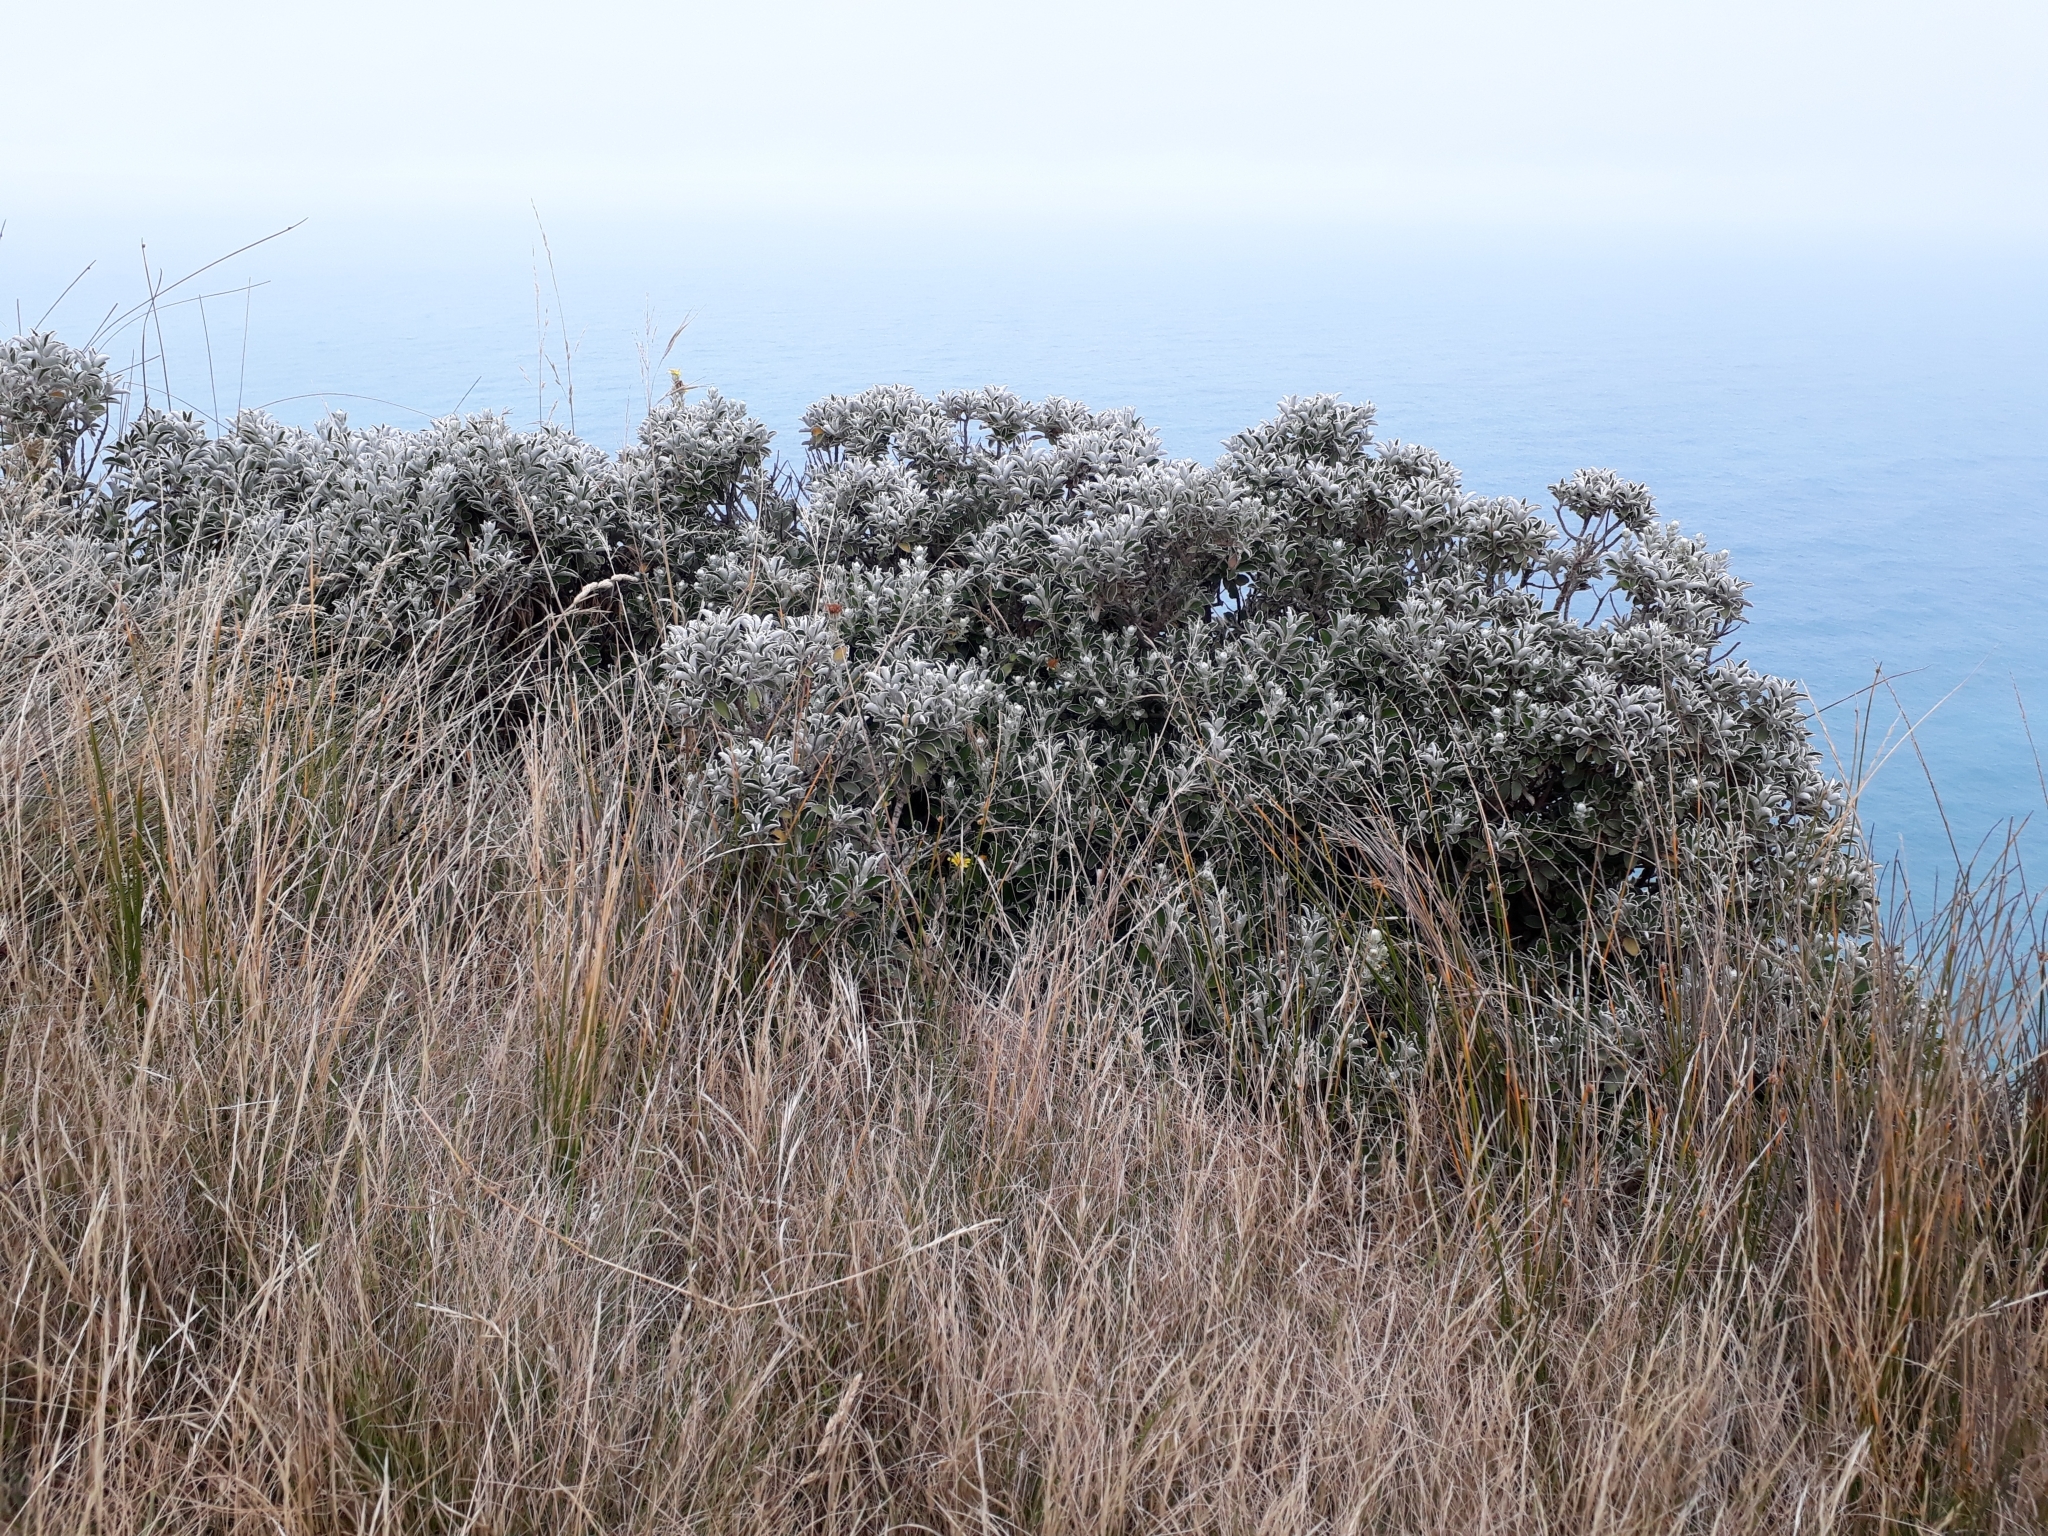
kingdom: Plantae
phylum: Tracheophyta
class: Magnoliopsida
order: Asterales
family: Asteraceae
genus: Brachyglottis
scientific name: Brachyglottis compacta
